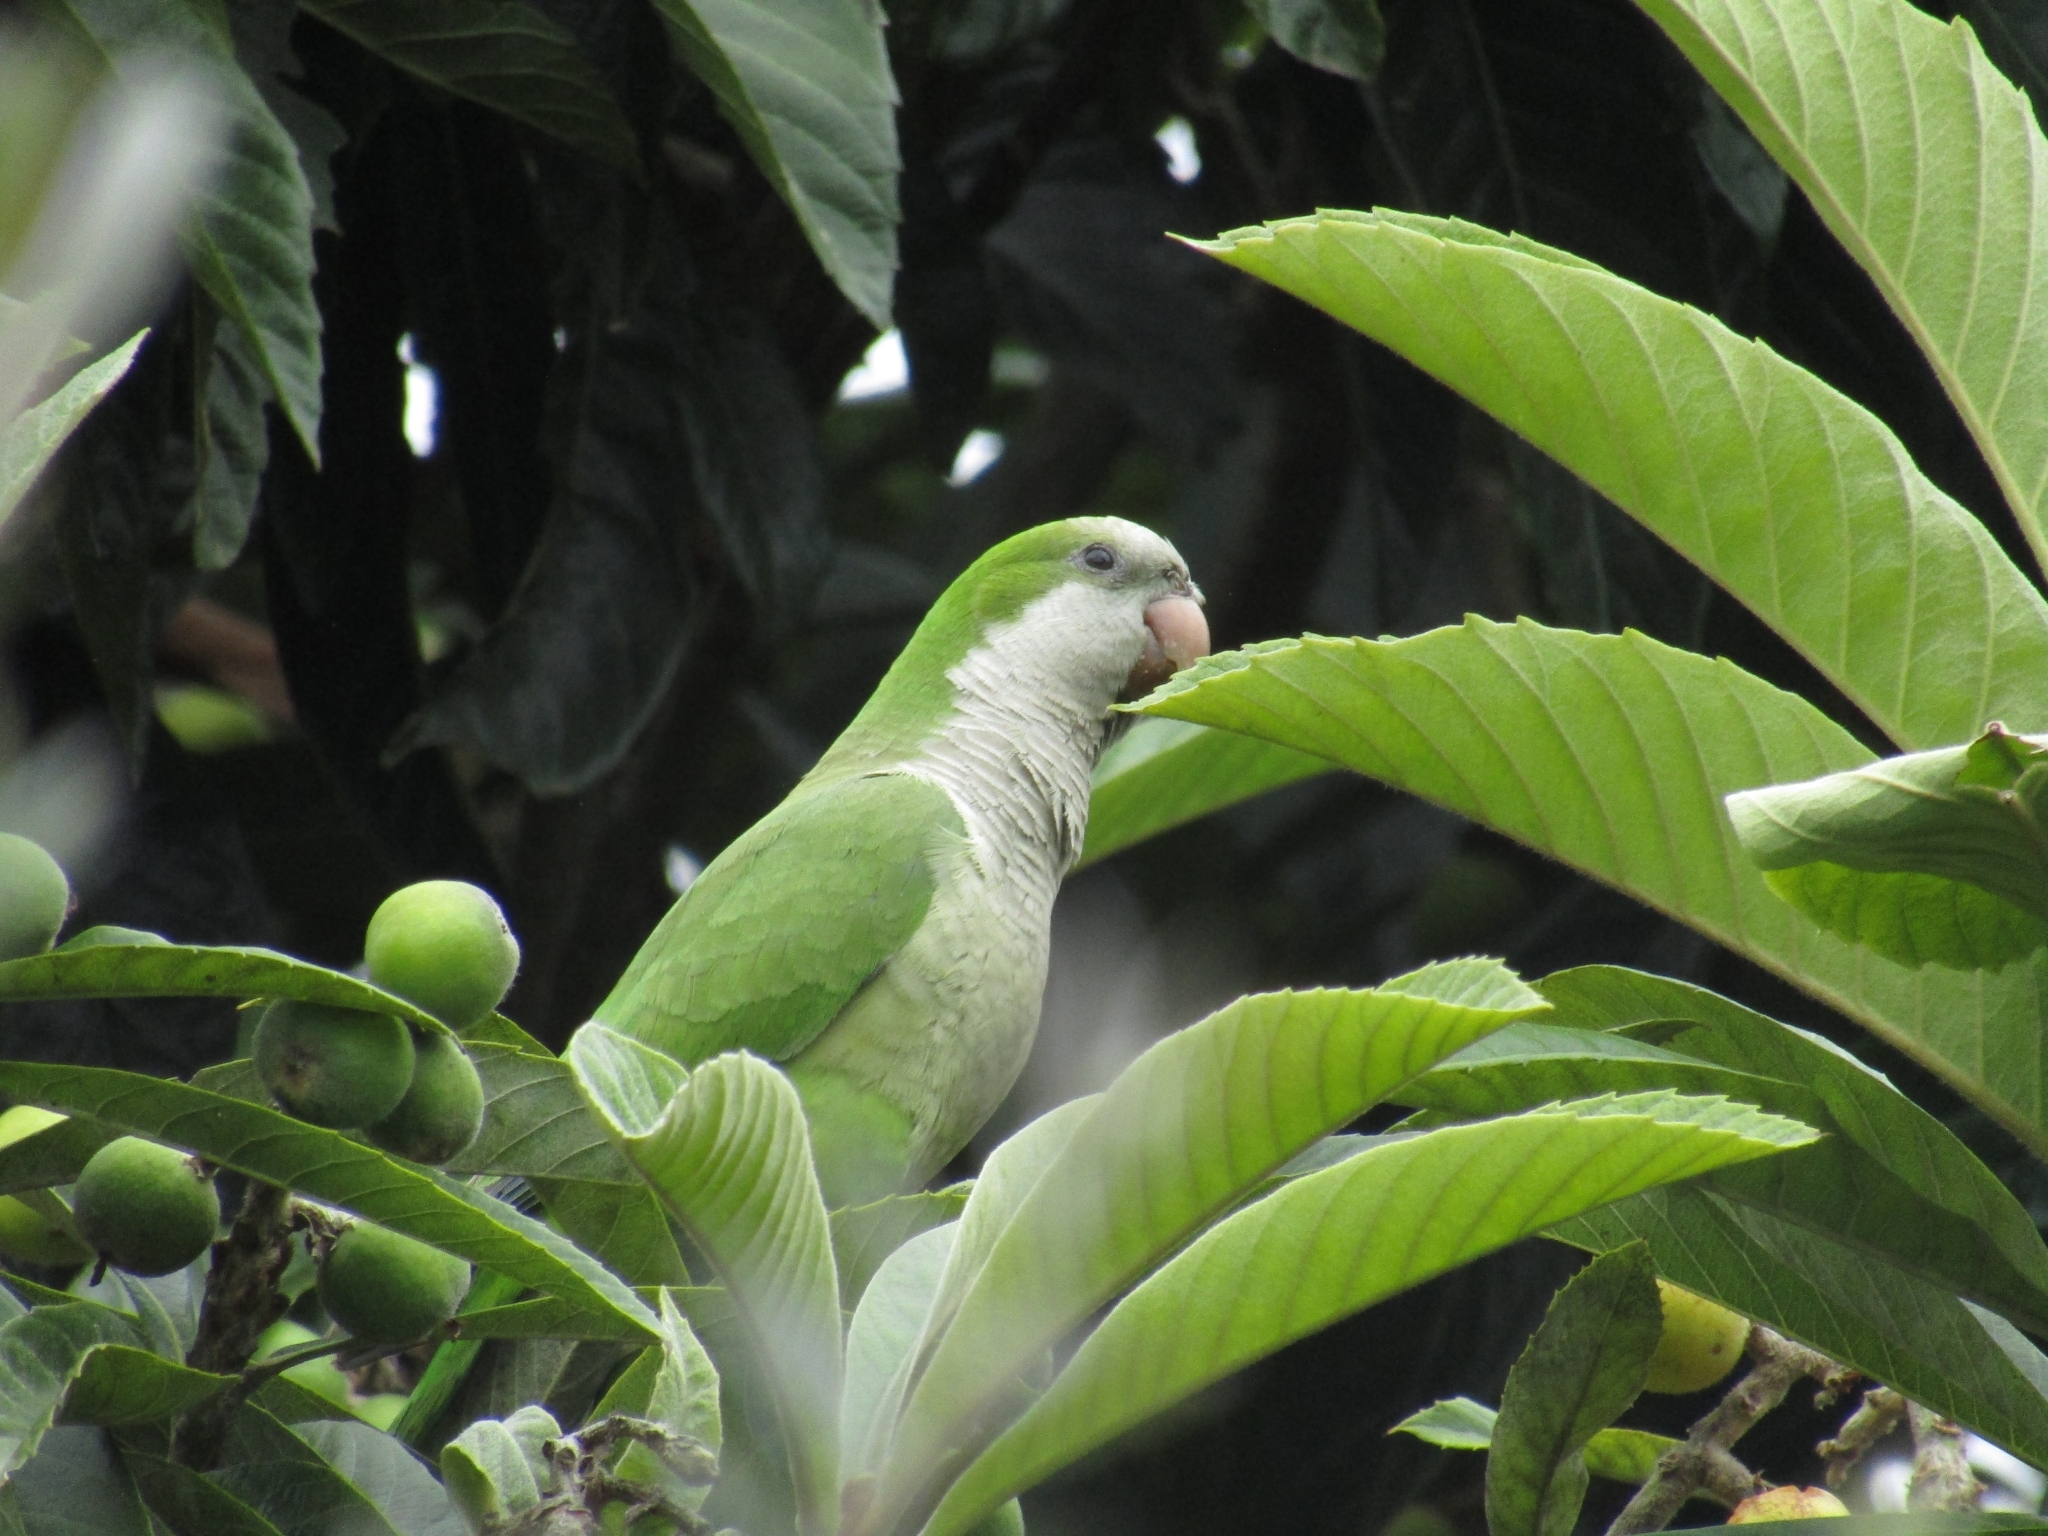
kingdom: Animalia
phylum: Chordata
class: Aves
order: Psittaciformes
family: Psittacidae
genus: Myiopsitta
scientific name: Myiopsitta monachus
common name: Monk parakeet
